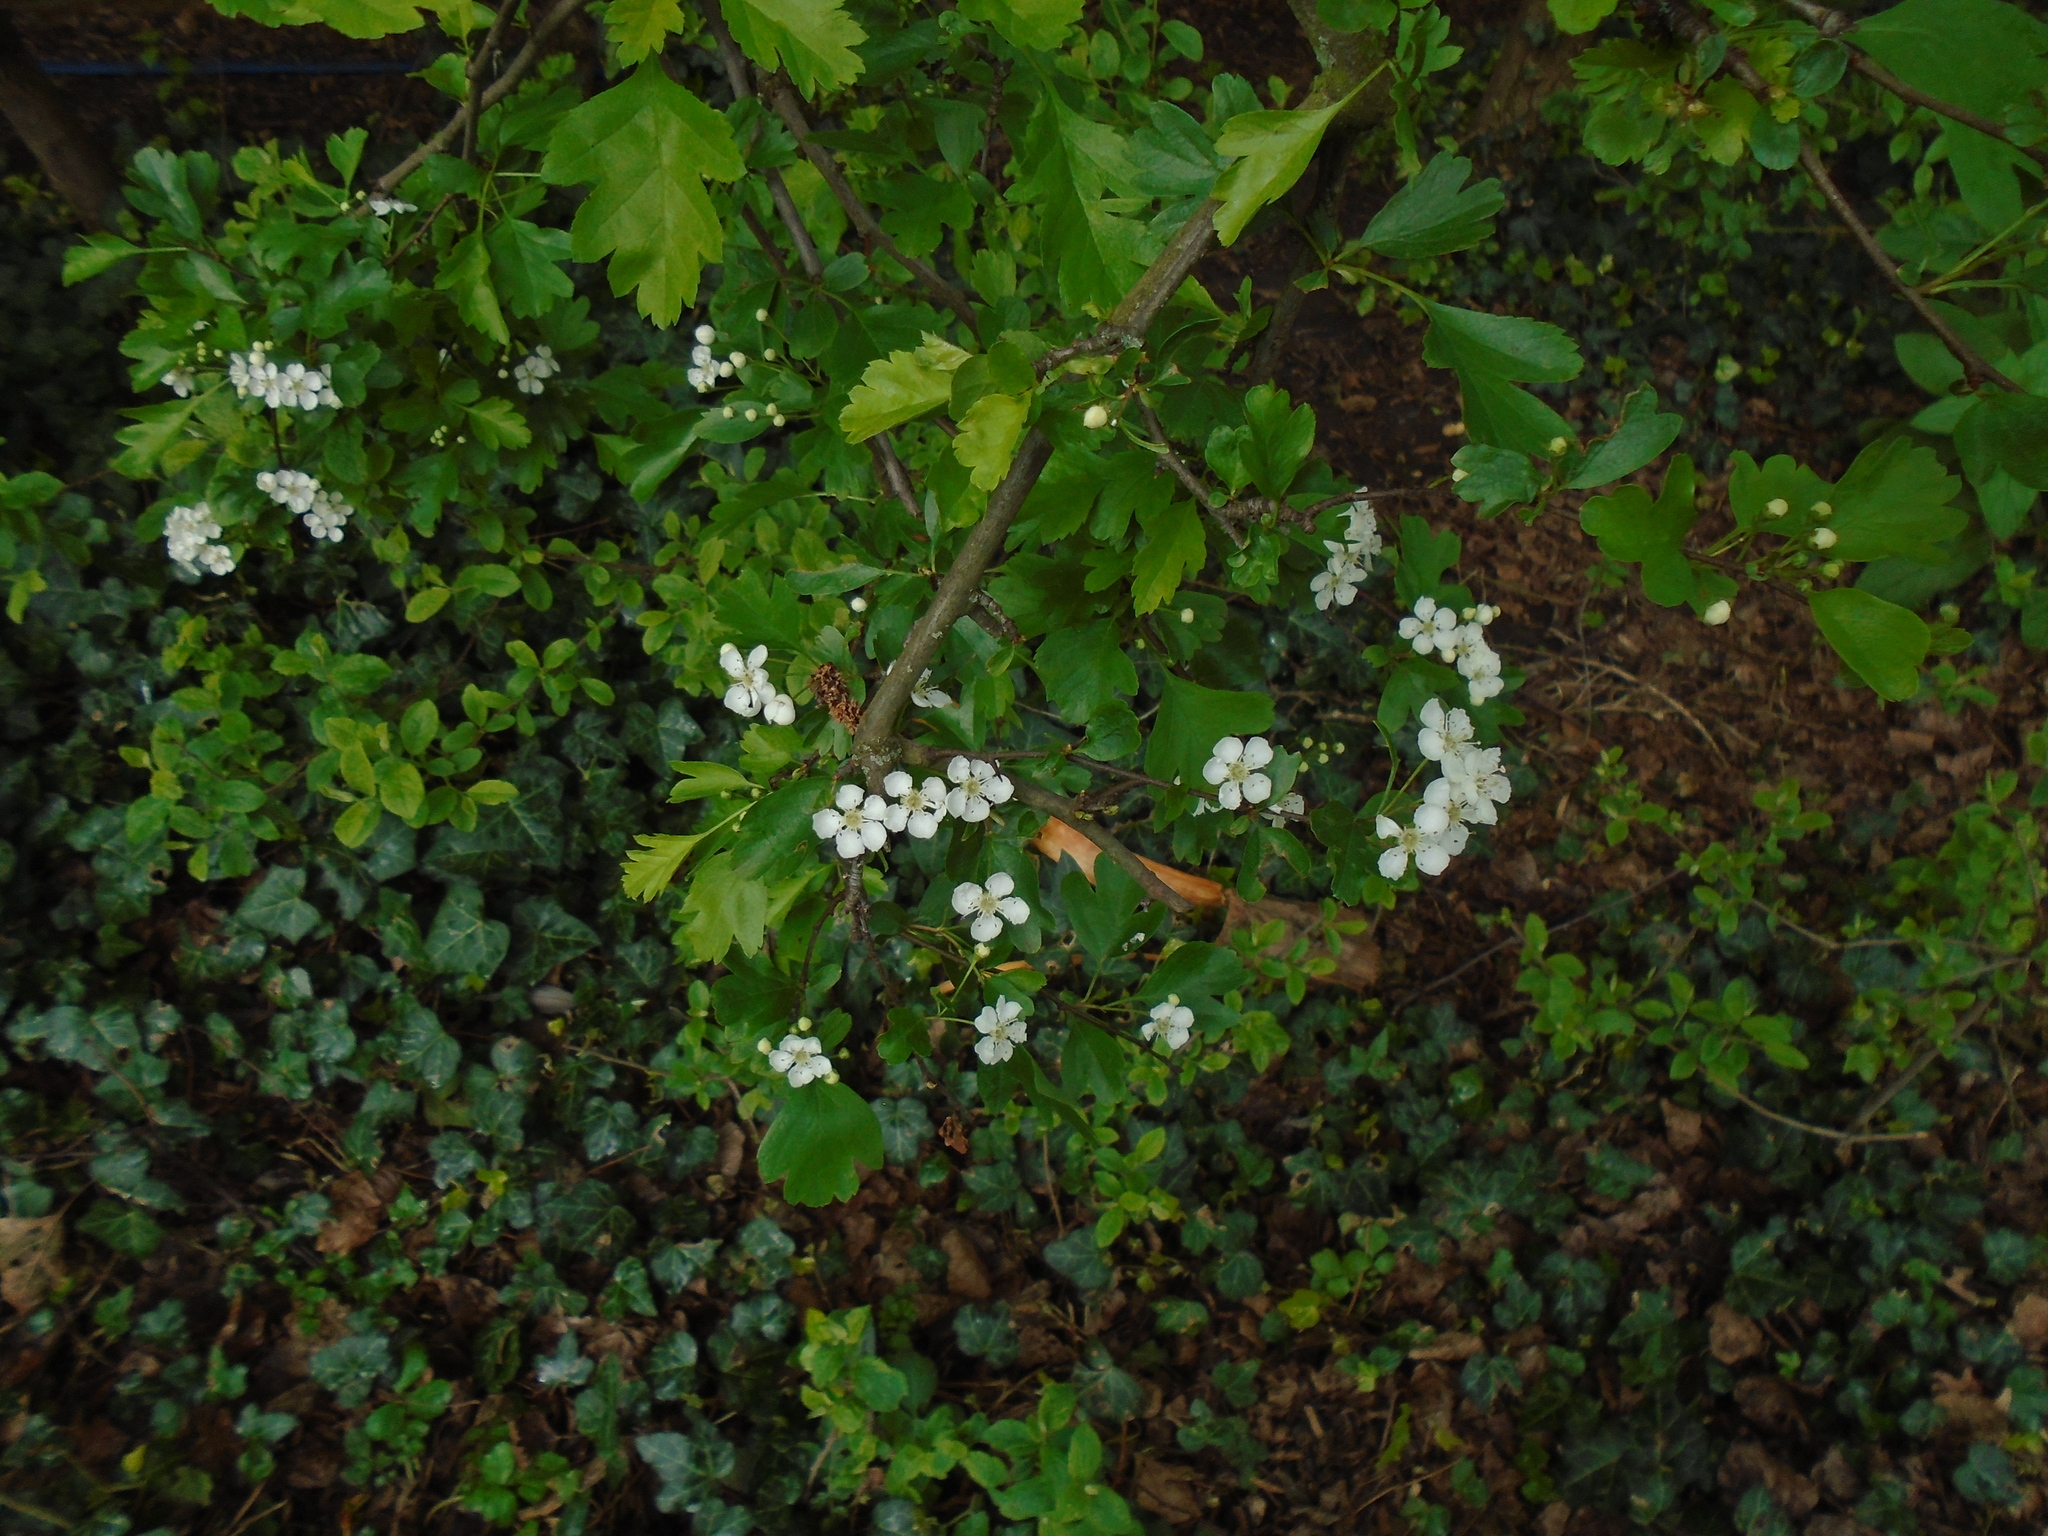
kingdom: Plantae
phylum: Tracheophyta
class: Magnoliopsida
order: Rosales
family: Rosaceae
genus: Crataegus
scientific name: Crataegus monogyna
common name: Hawthorn
